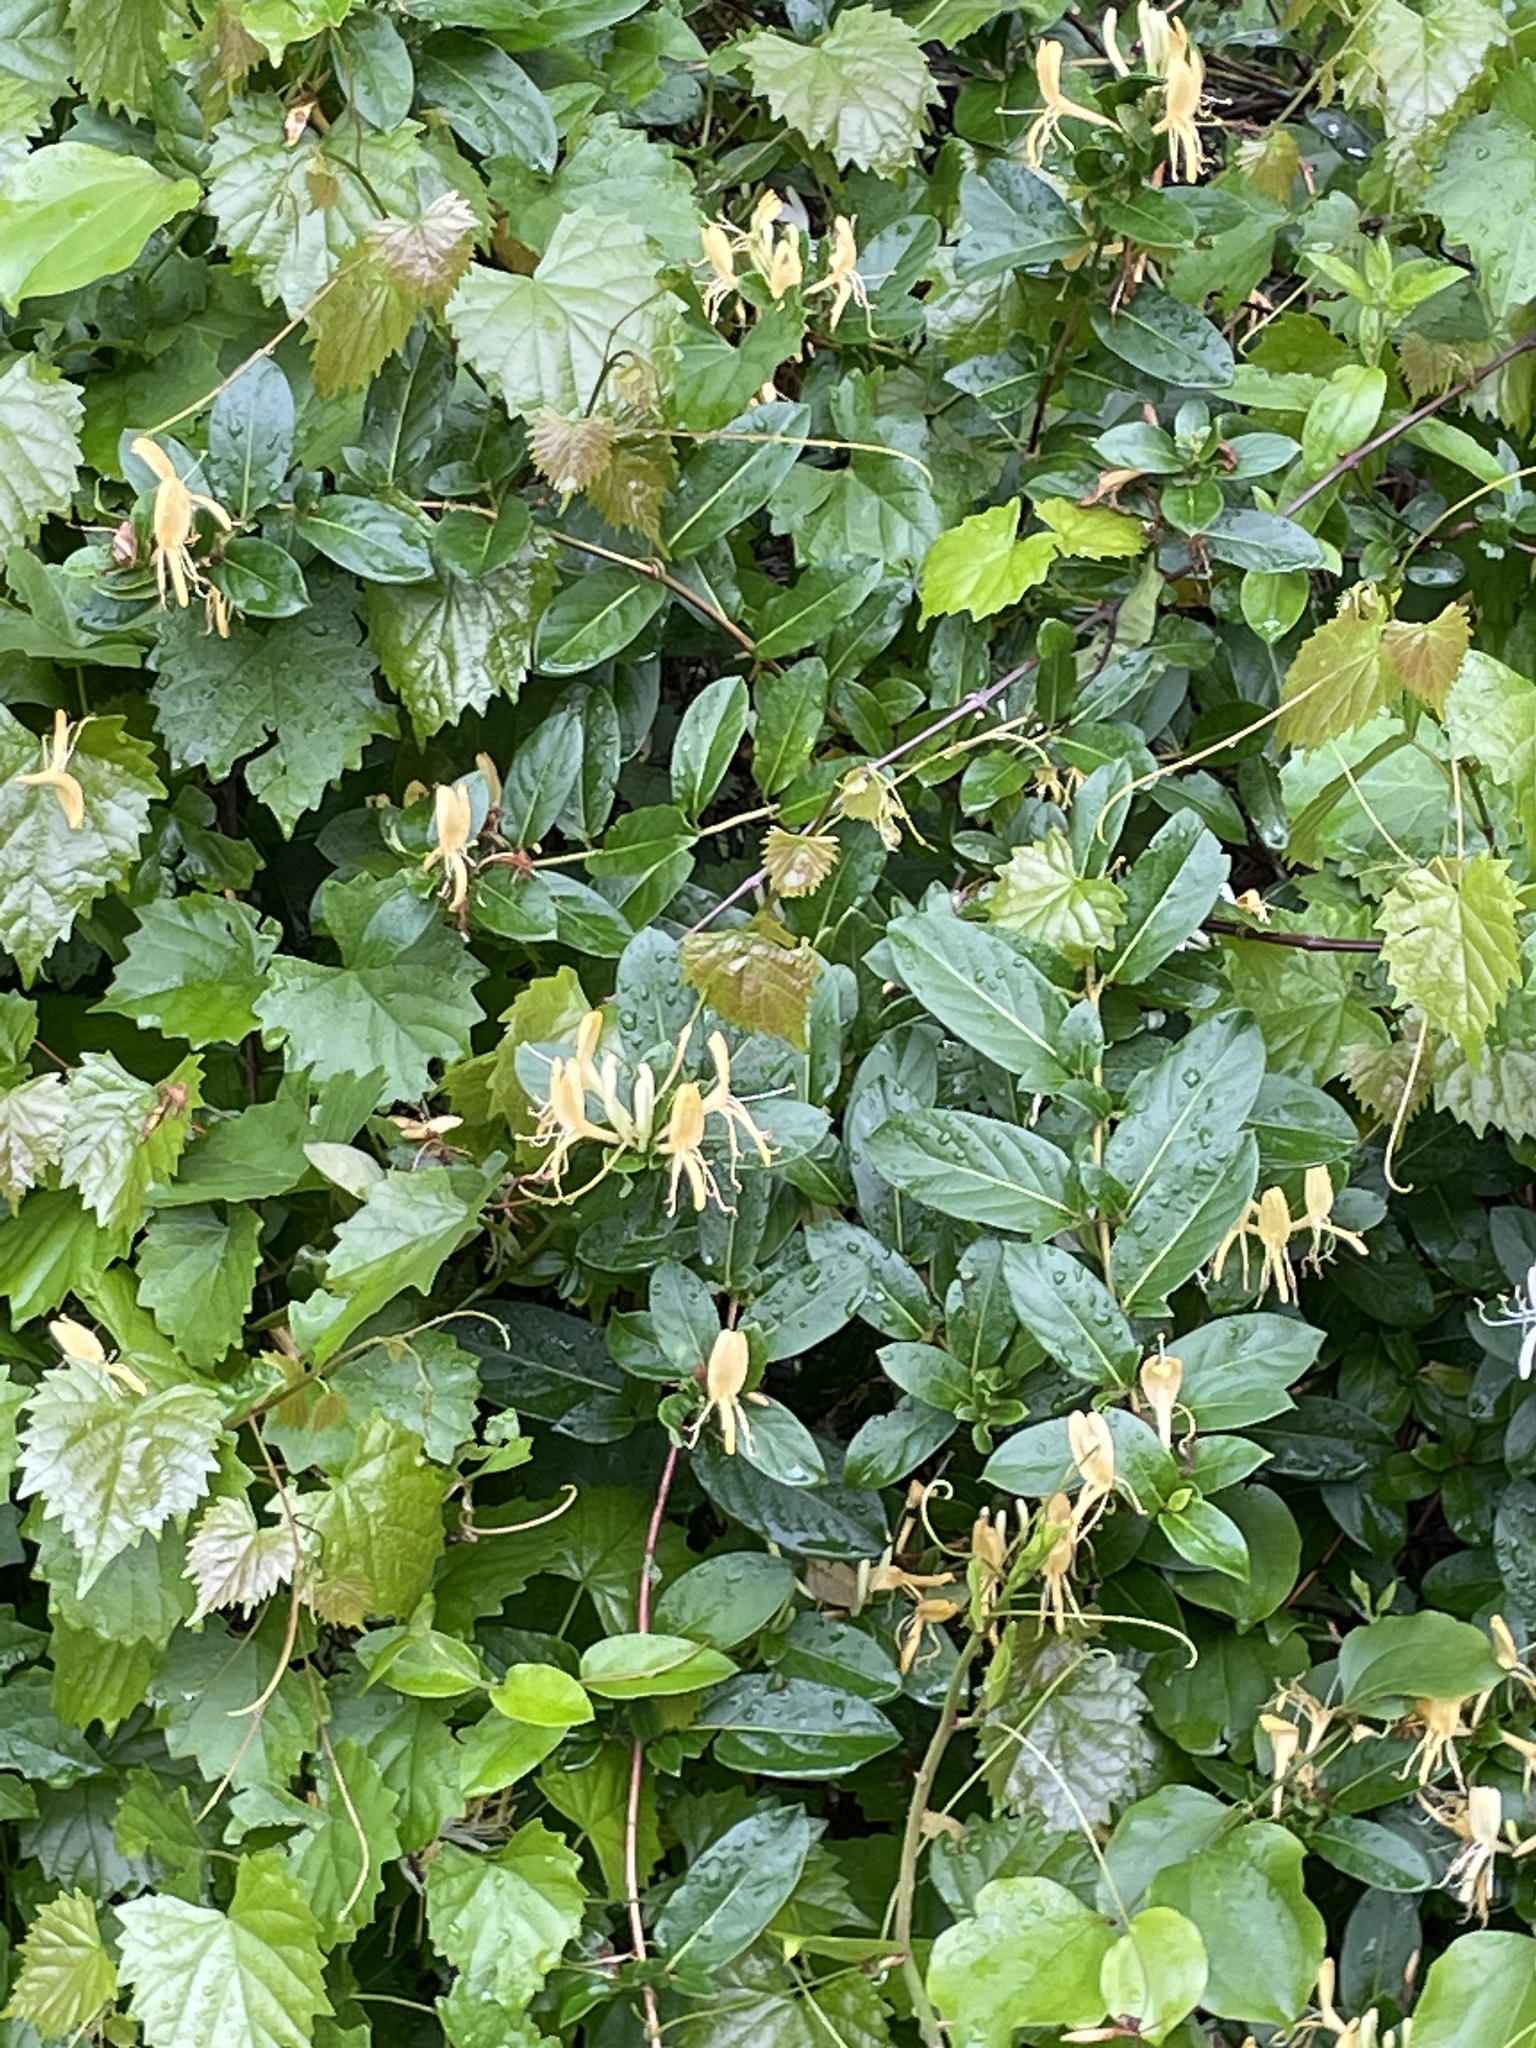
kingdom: Plantae
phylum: Tracheophyta
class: Magnoliopsida
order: Dipsacales
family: Caprifoliaceae
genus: Lonicera
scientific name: Lonicera japonica
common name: Japanese honeysuckle
